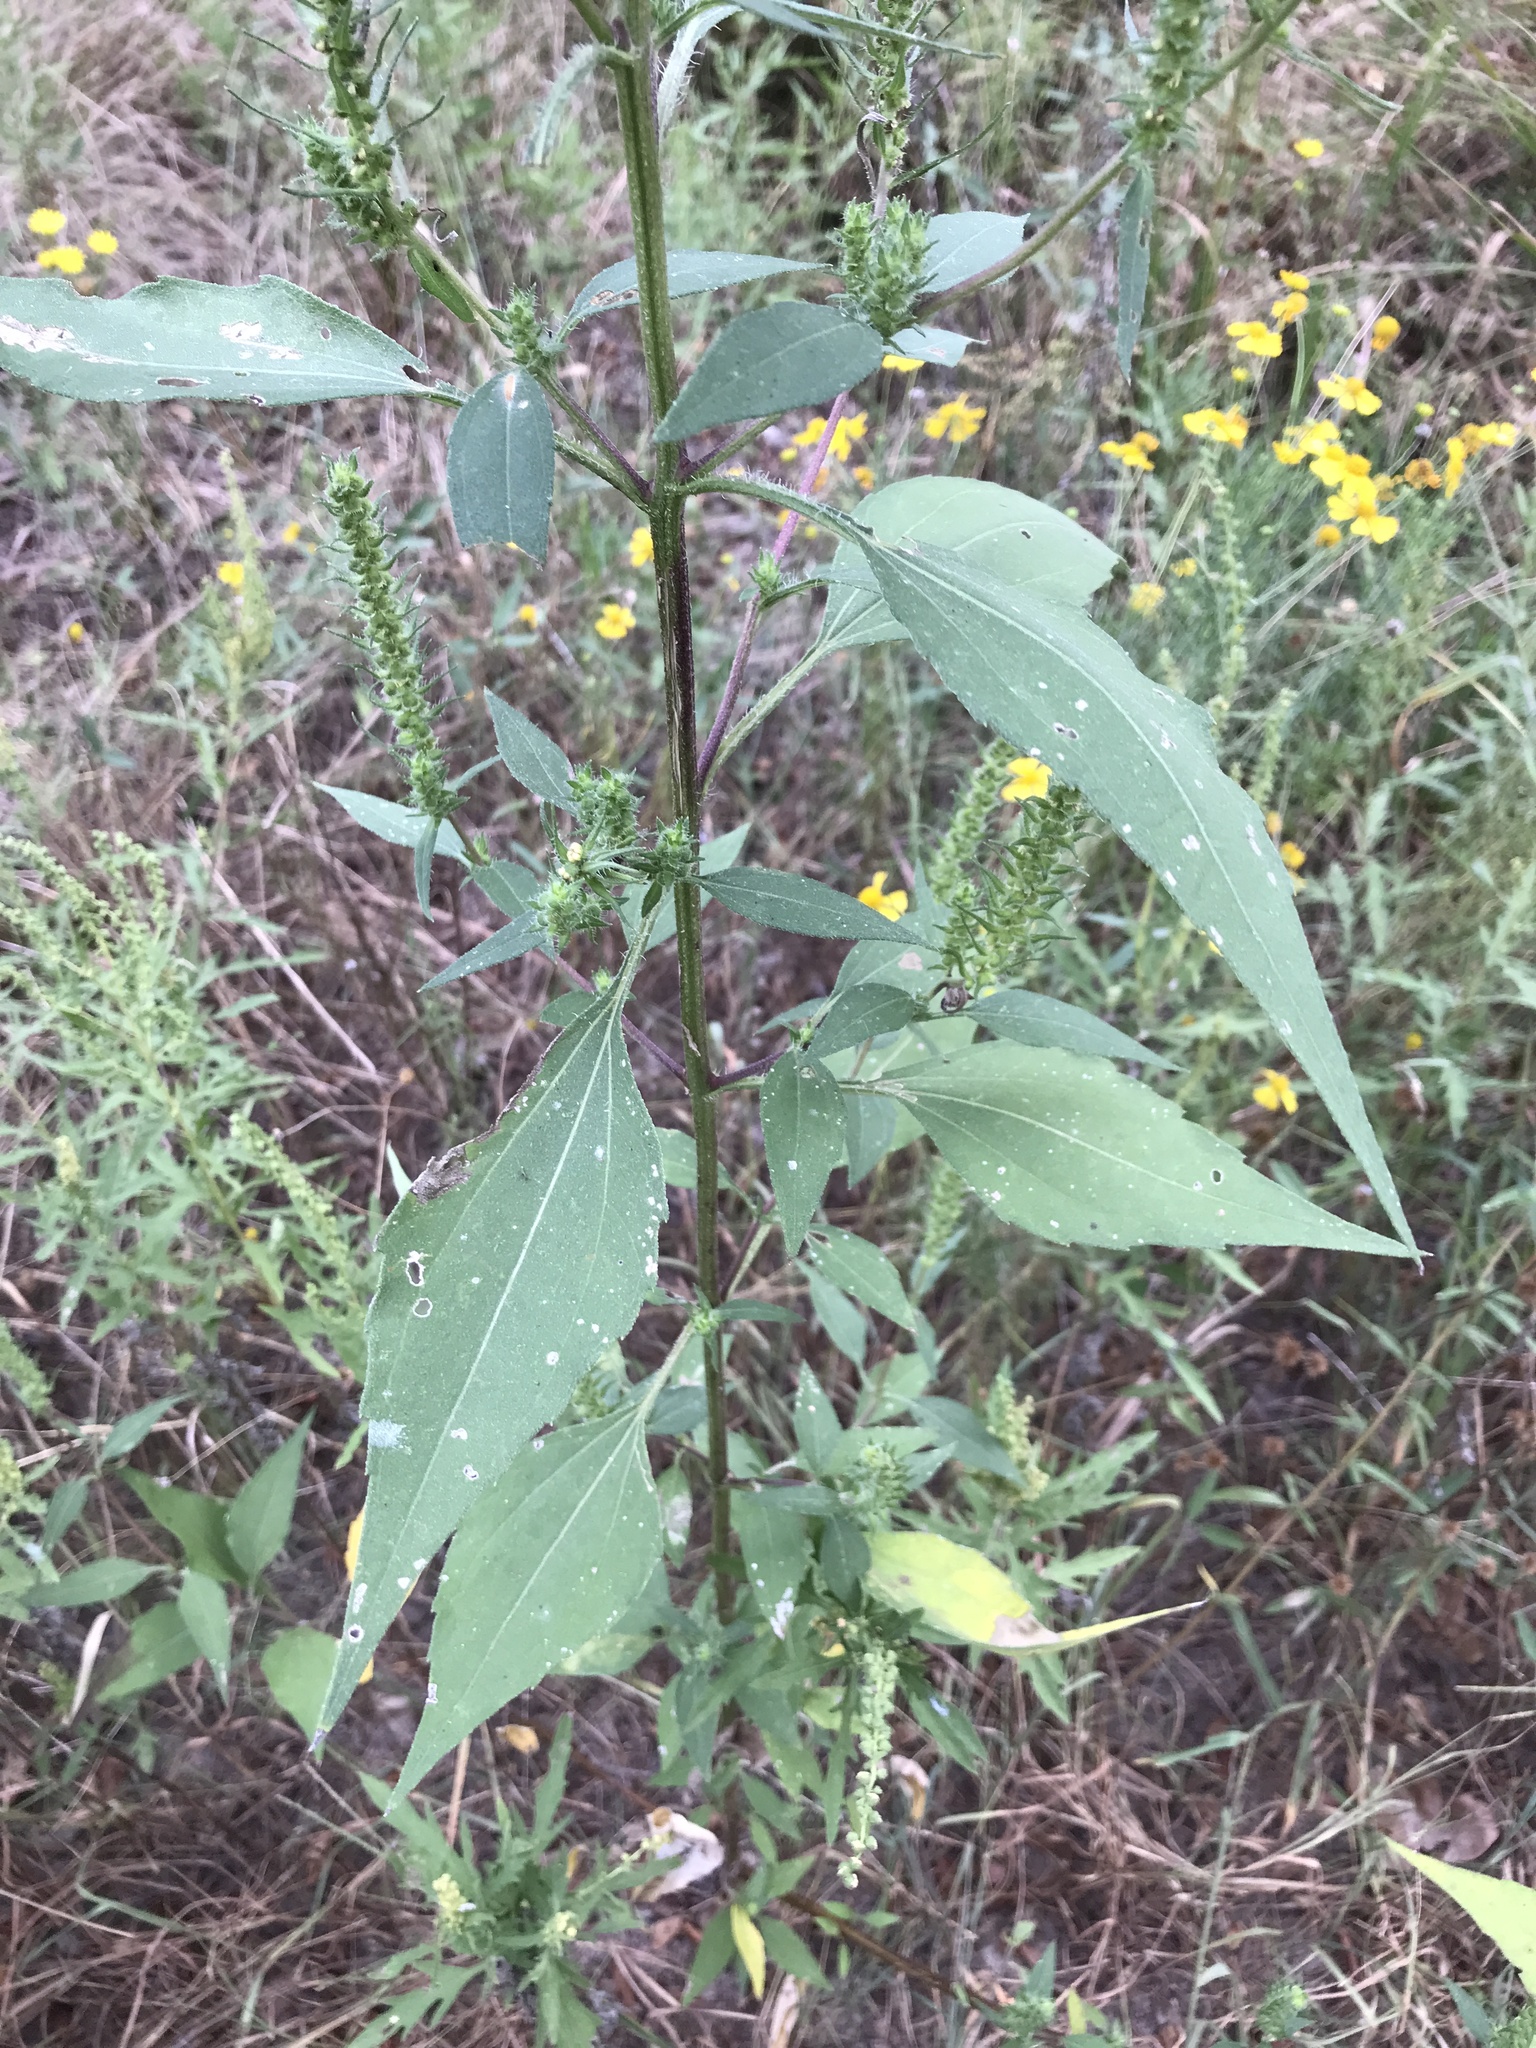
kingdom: Plantae
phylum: Tracheophyta
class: Magnoliopsida
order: Asterales
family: Asteraceae
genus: Iva
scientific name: Iva annua
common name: Marsh-elder
